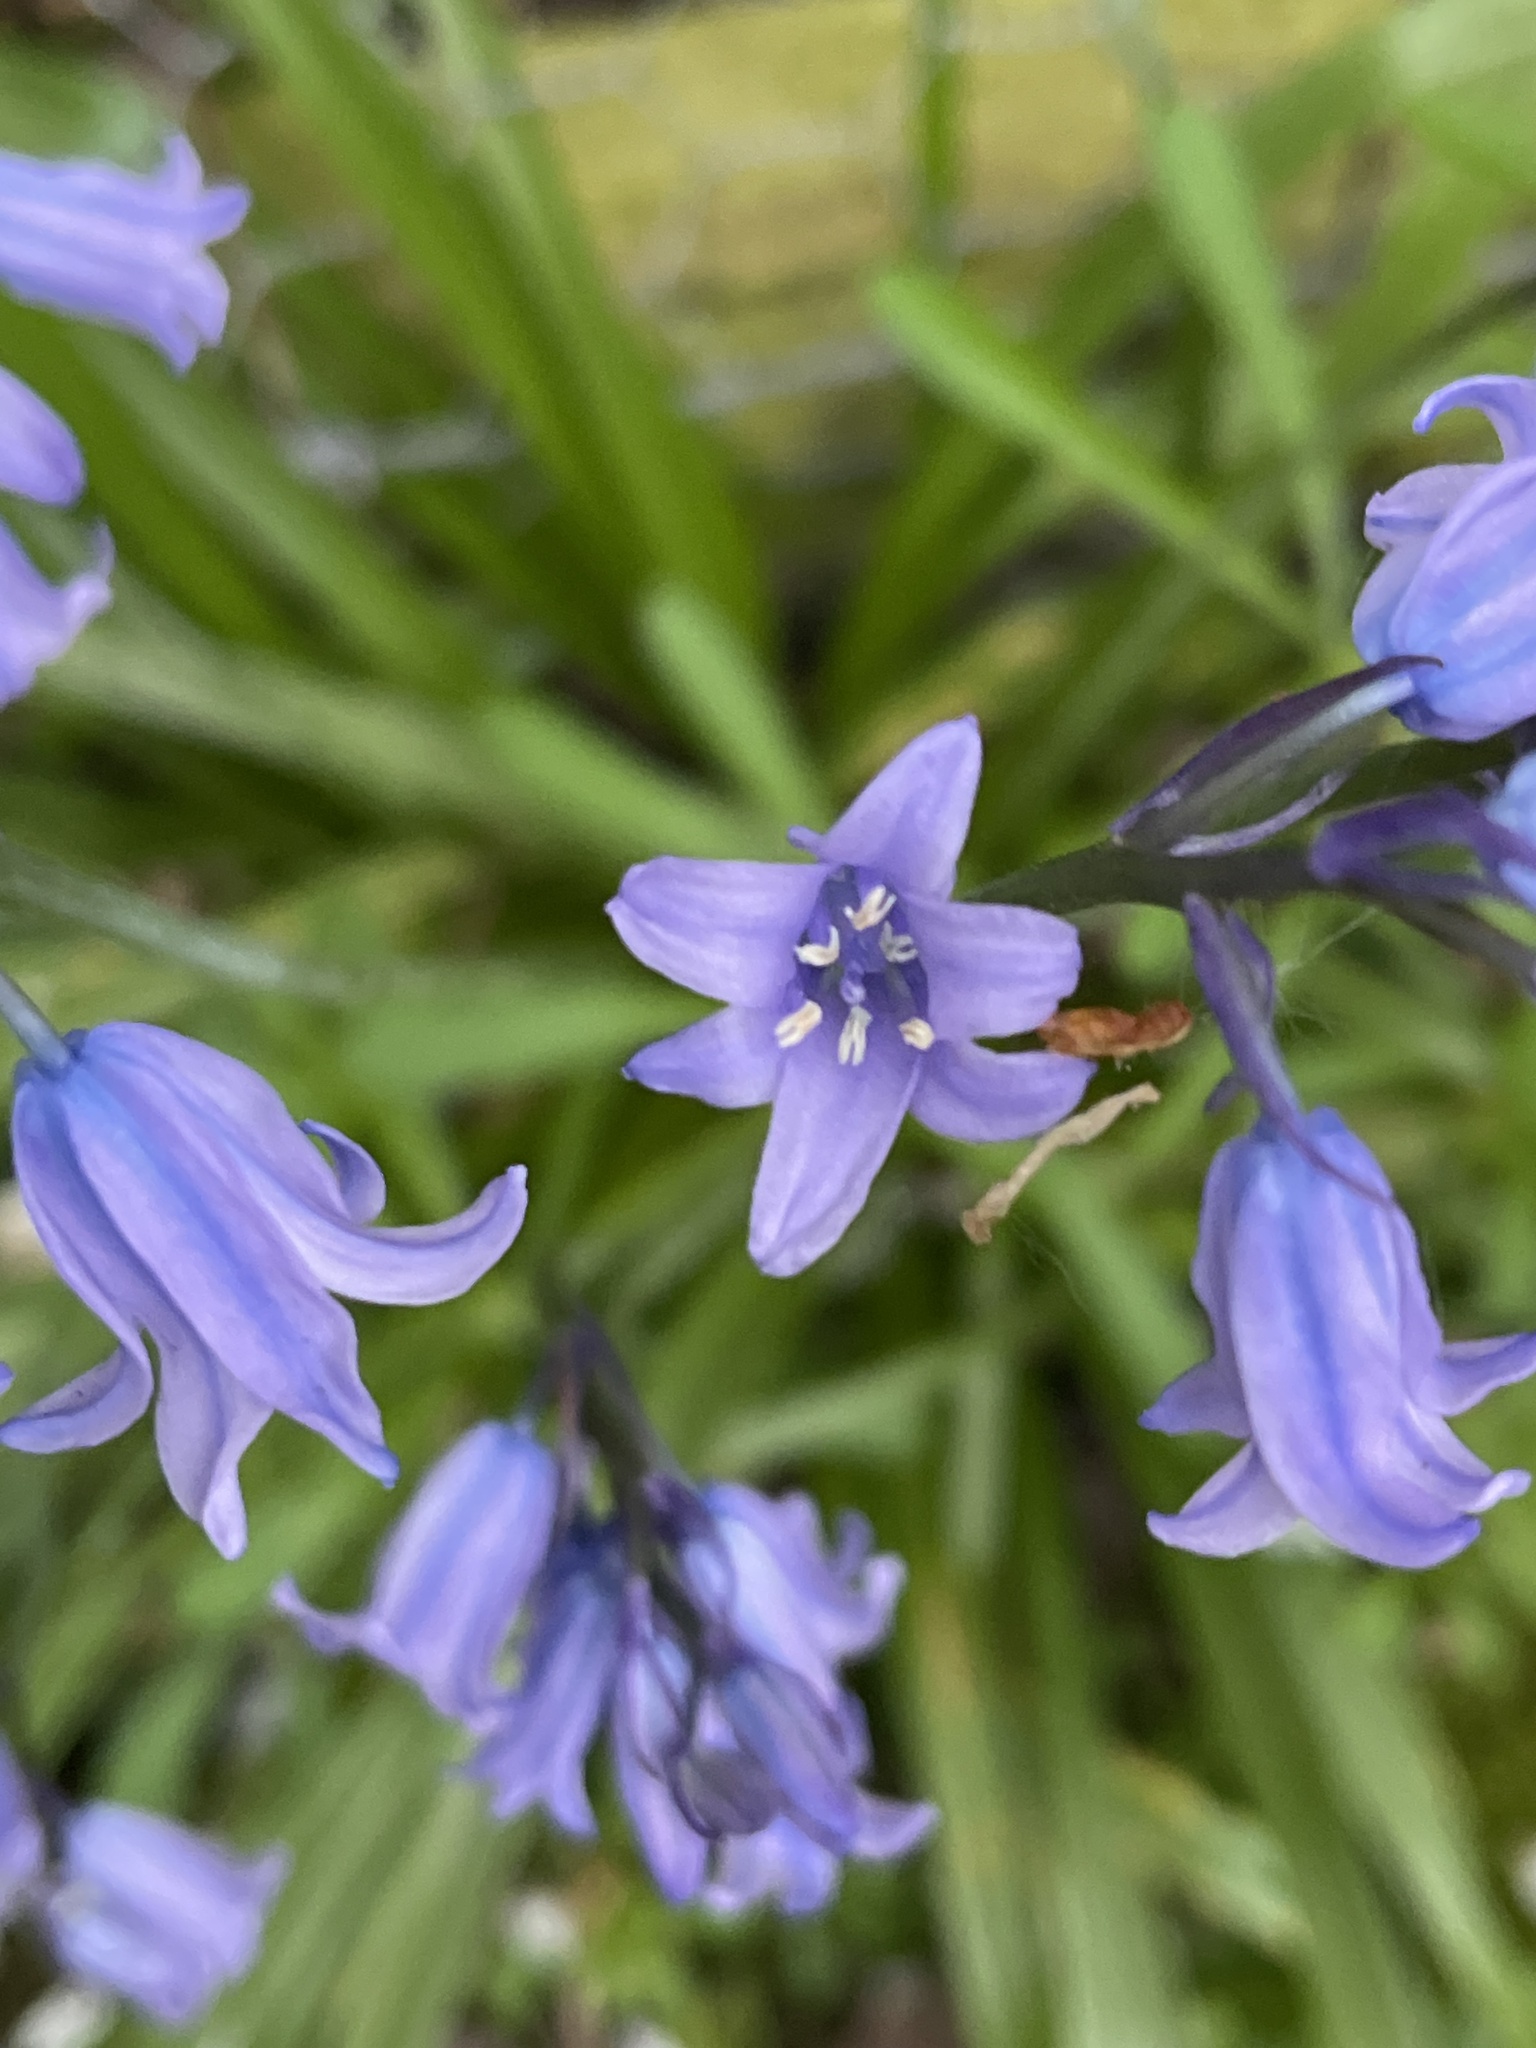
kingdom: Plantae
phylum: Tracheophyta
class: Liliopsida
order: Asparagales
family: Asparagaceae
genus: Hyacinthoides
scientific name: Hyacinthoides massartiana
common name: Hyacinthoides
